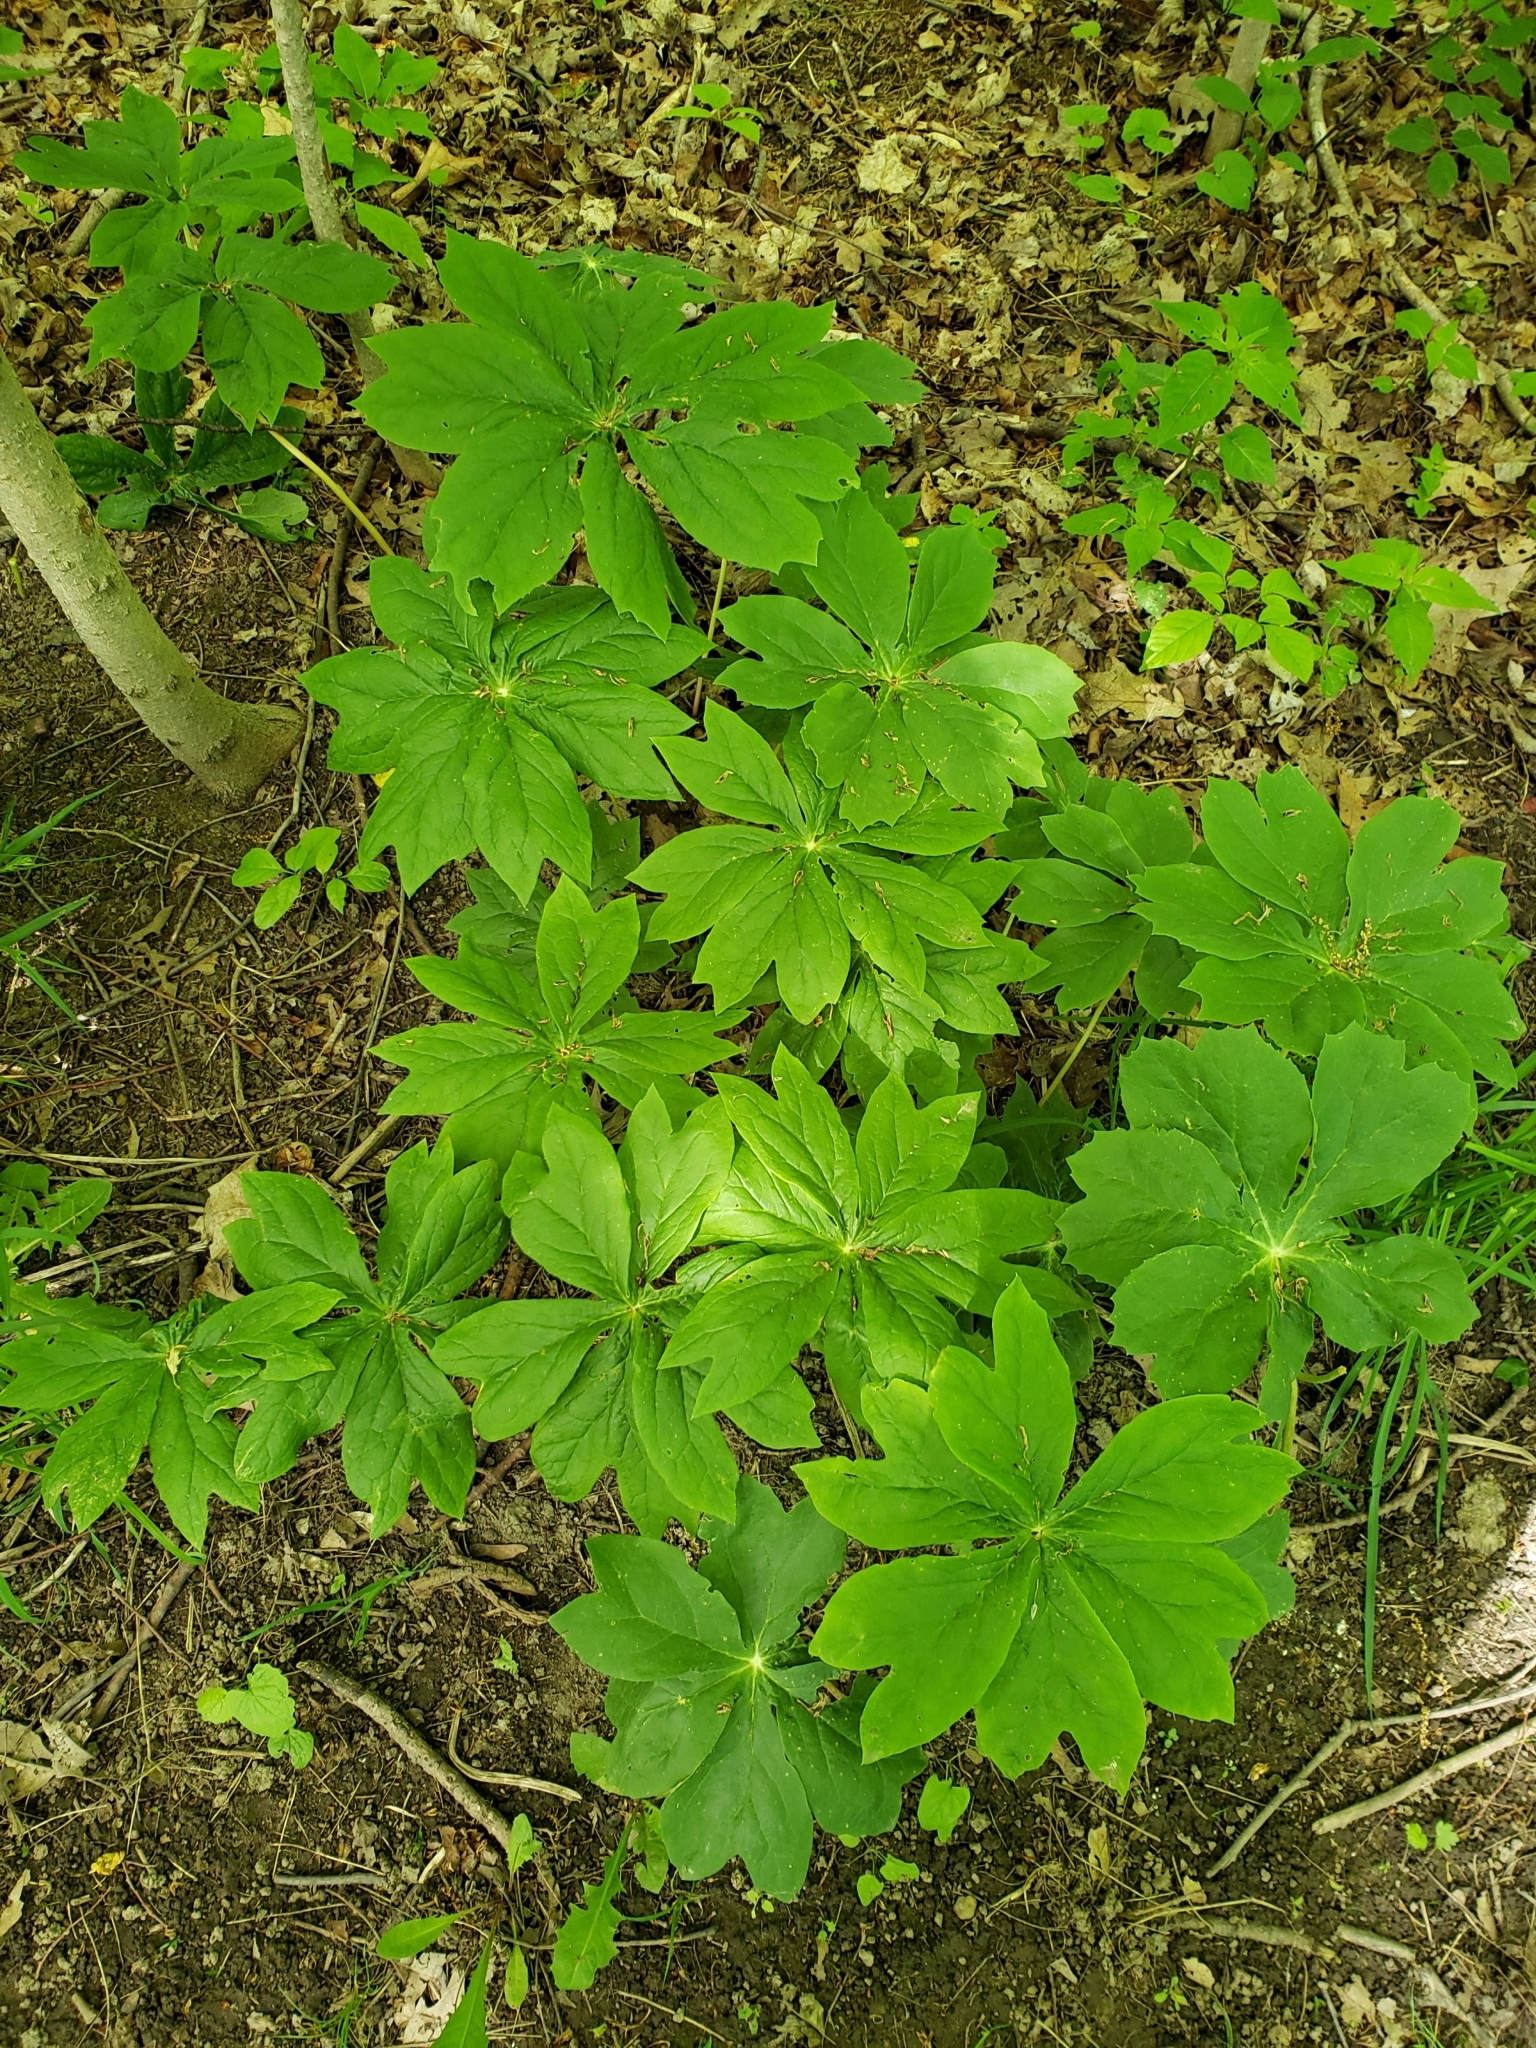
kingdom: Plantae
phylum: Tracheophyta
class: Magnoliopsida
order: Ranunculales
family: Berberidaceae
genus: Podophyllum
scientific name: Podophyllum peltatum
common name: Wild mandrake
